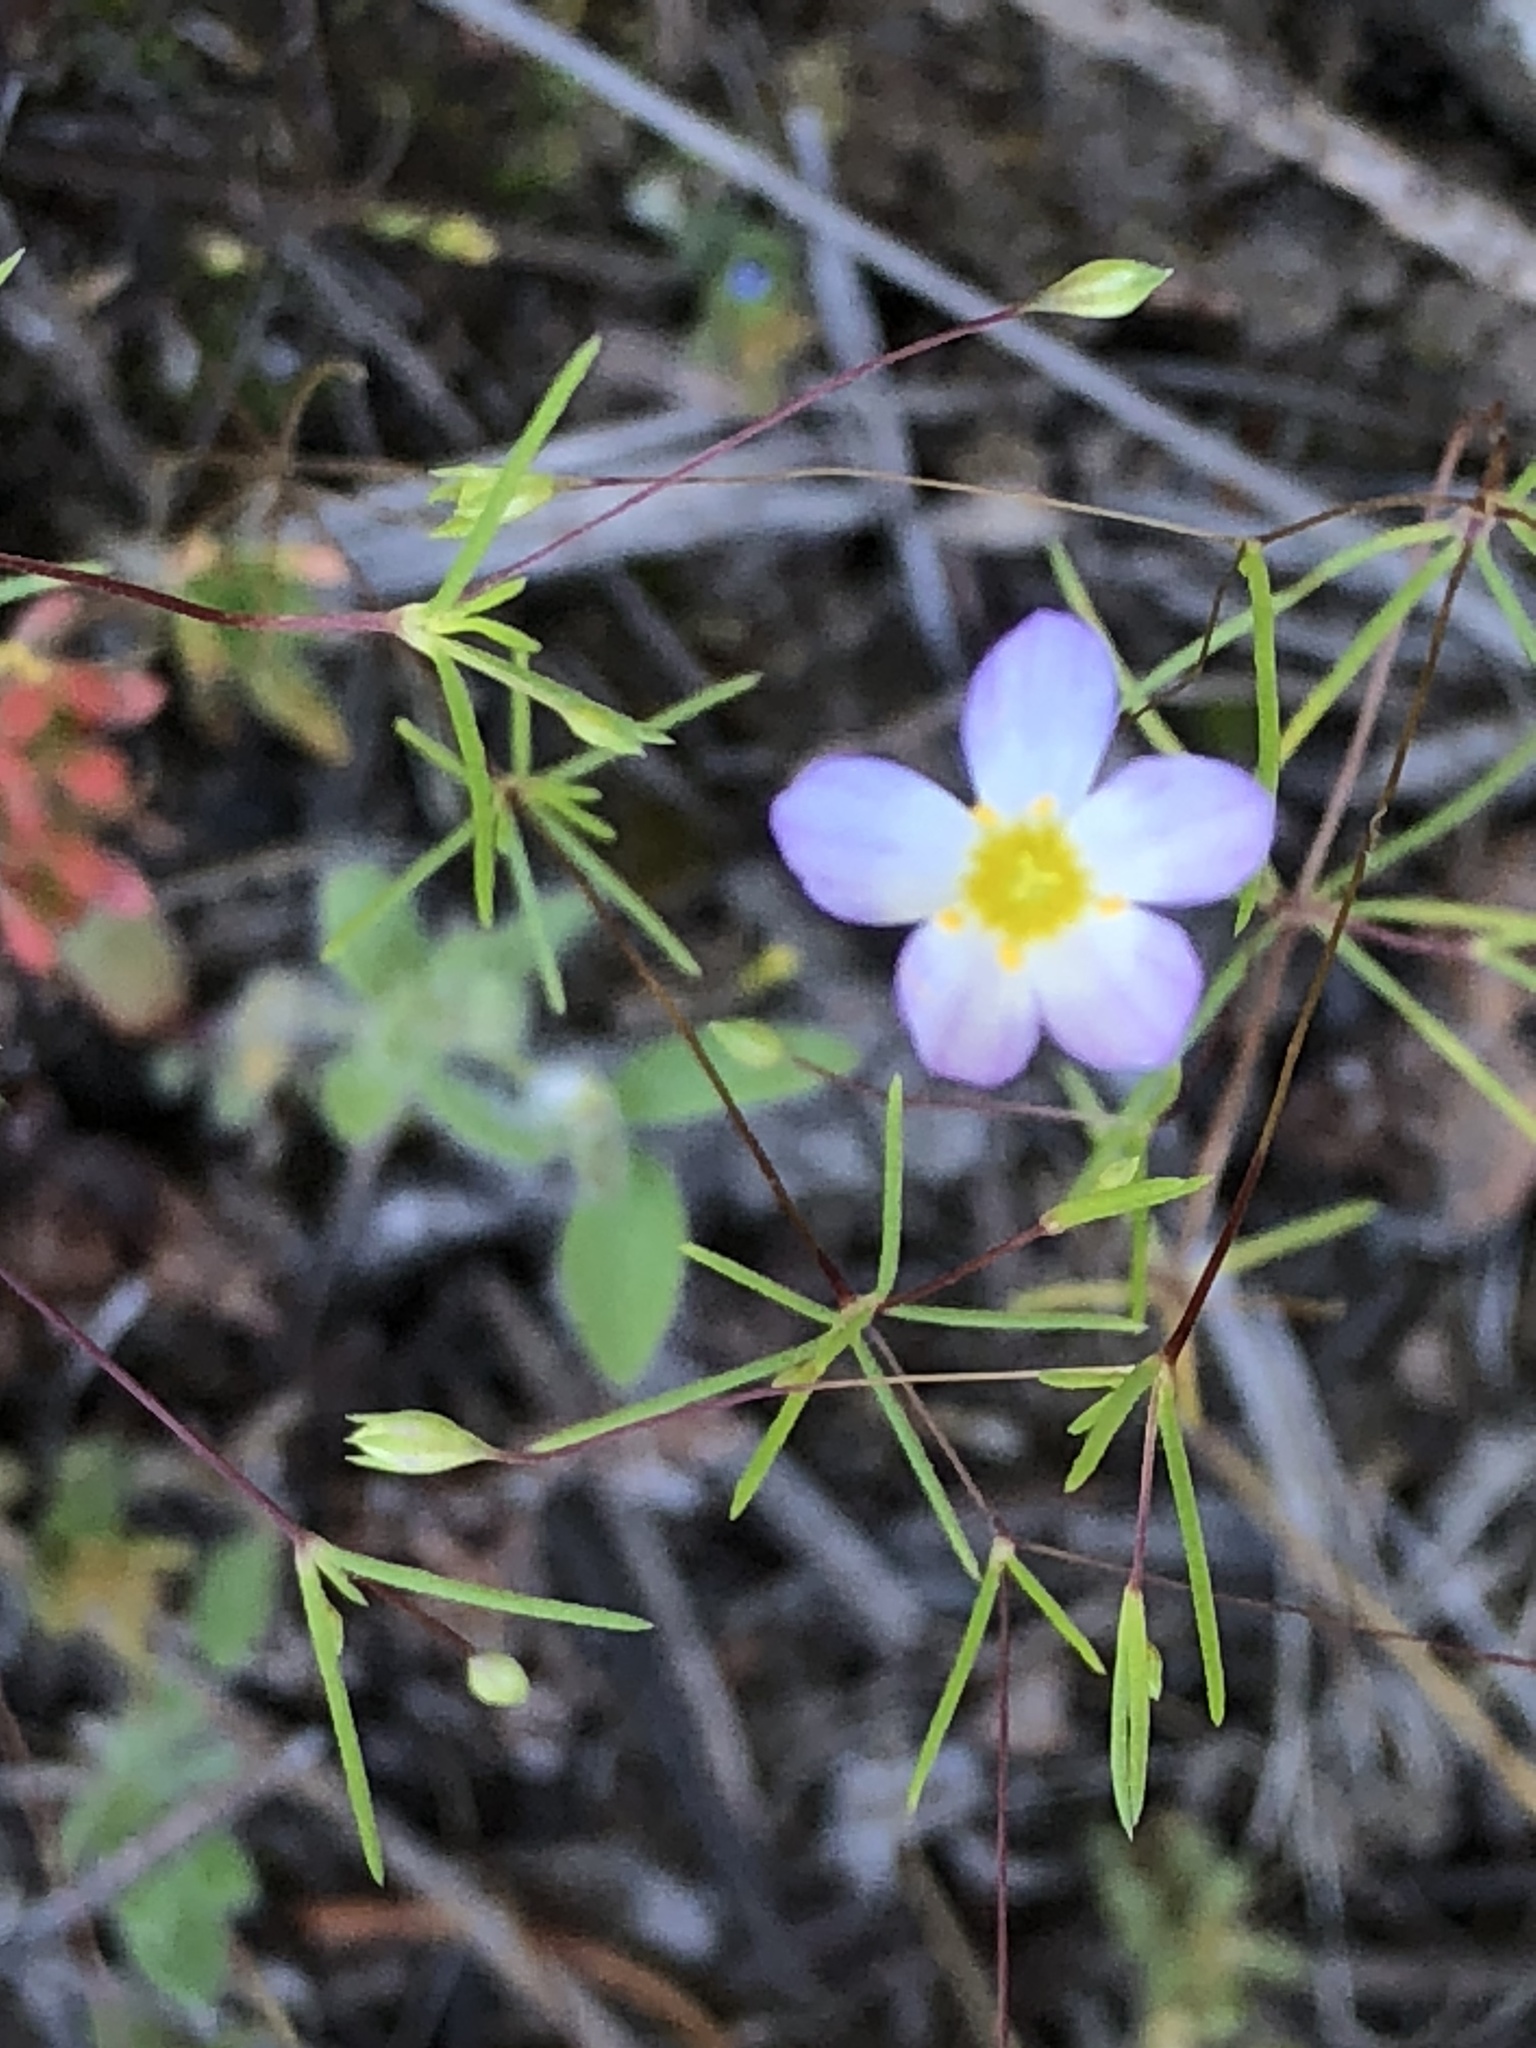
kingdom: Plantae
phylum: Tracheophyta
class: Magnoliopsida
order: Ericales
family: Polemoniaceae
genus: Leptosiphon
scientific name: Leptosiphon liniflorus
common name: Narrowflower flaxflower
